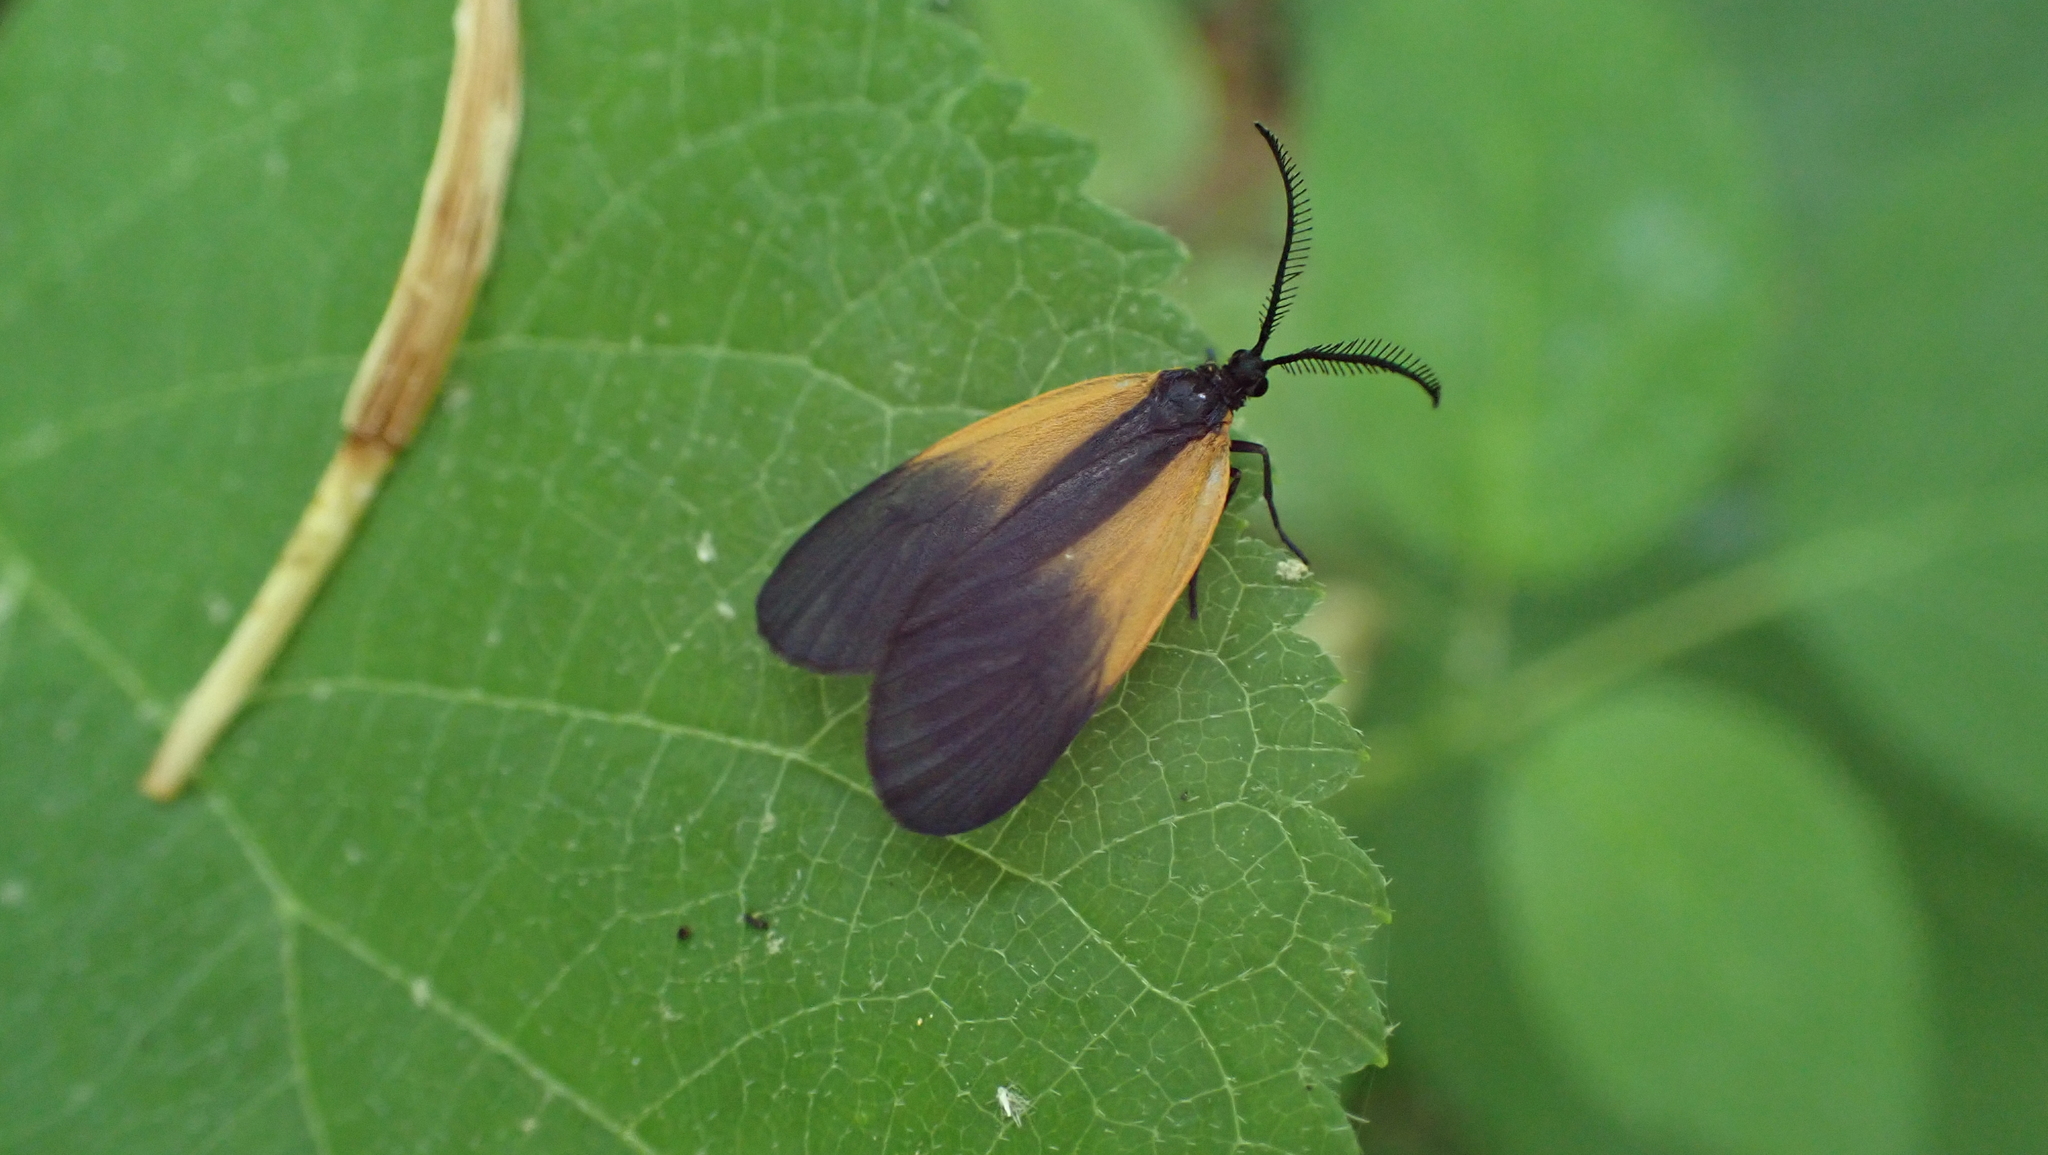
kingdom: Animalia
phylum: Arthropoda
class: Insecta
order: Lepidoptera
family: Zygaenidae
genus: Malthaca
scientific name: Malthaca dimidiata
